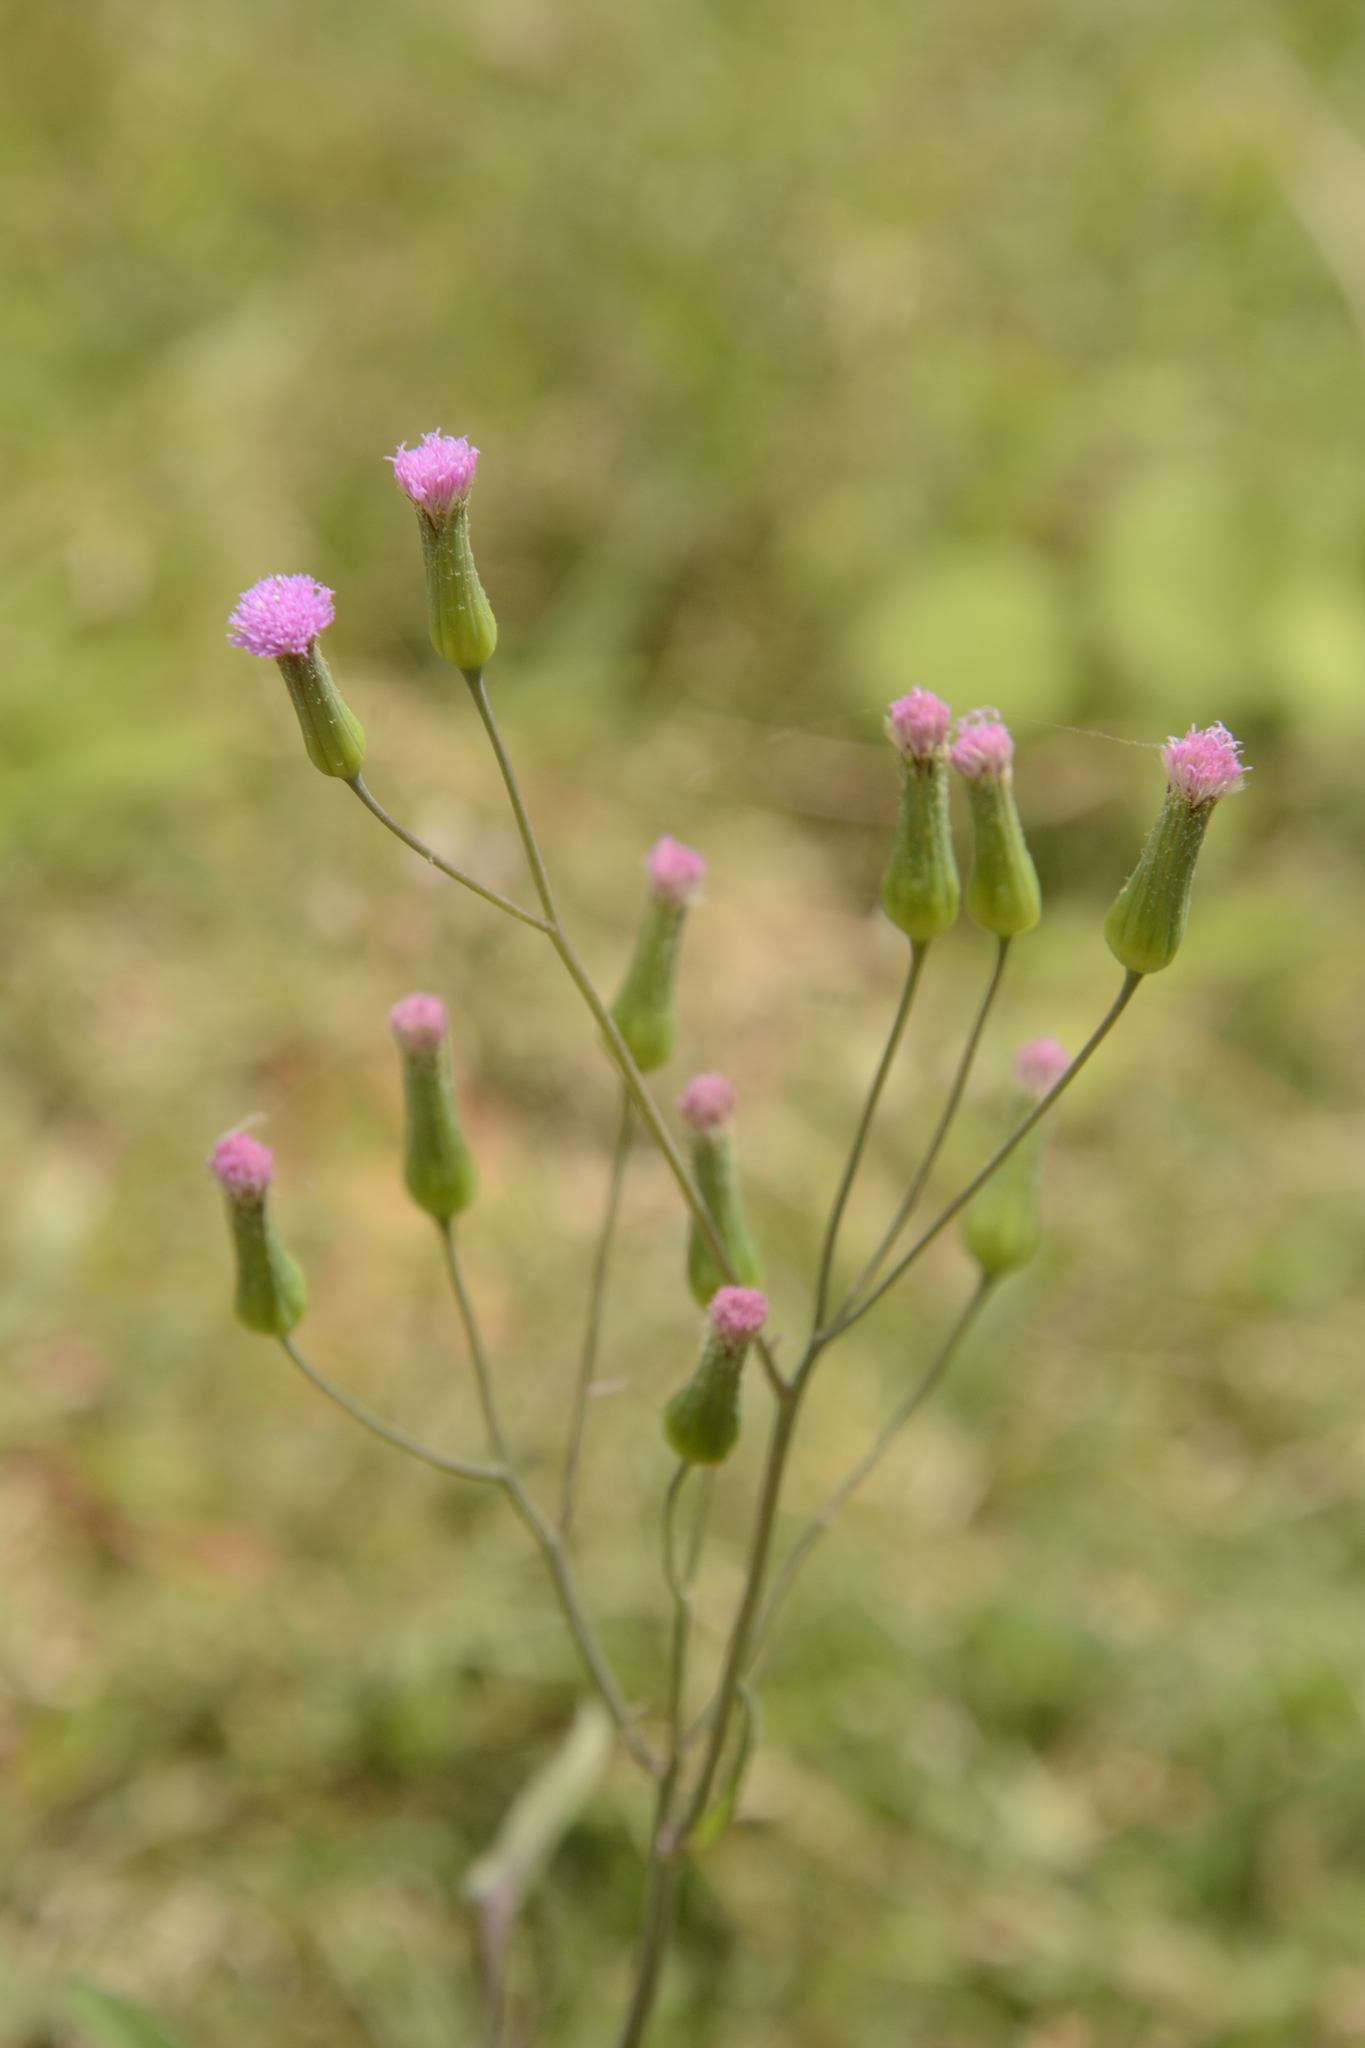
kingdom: Plantae
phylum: Tracheophyta
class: Magnoliopsida
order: Asterales
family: Asteraceae
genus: Emilia
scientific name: Emilia sonchifolia
